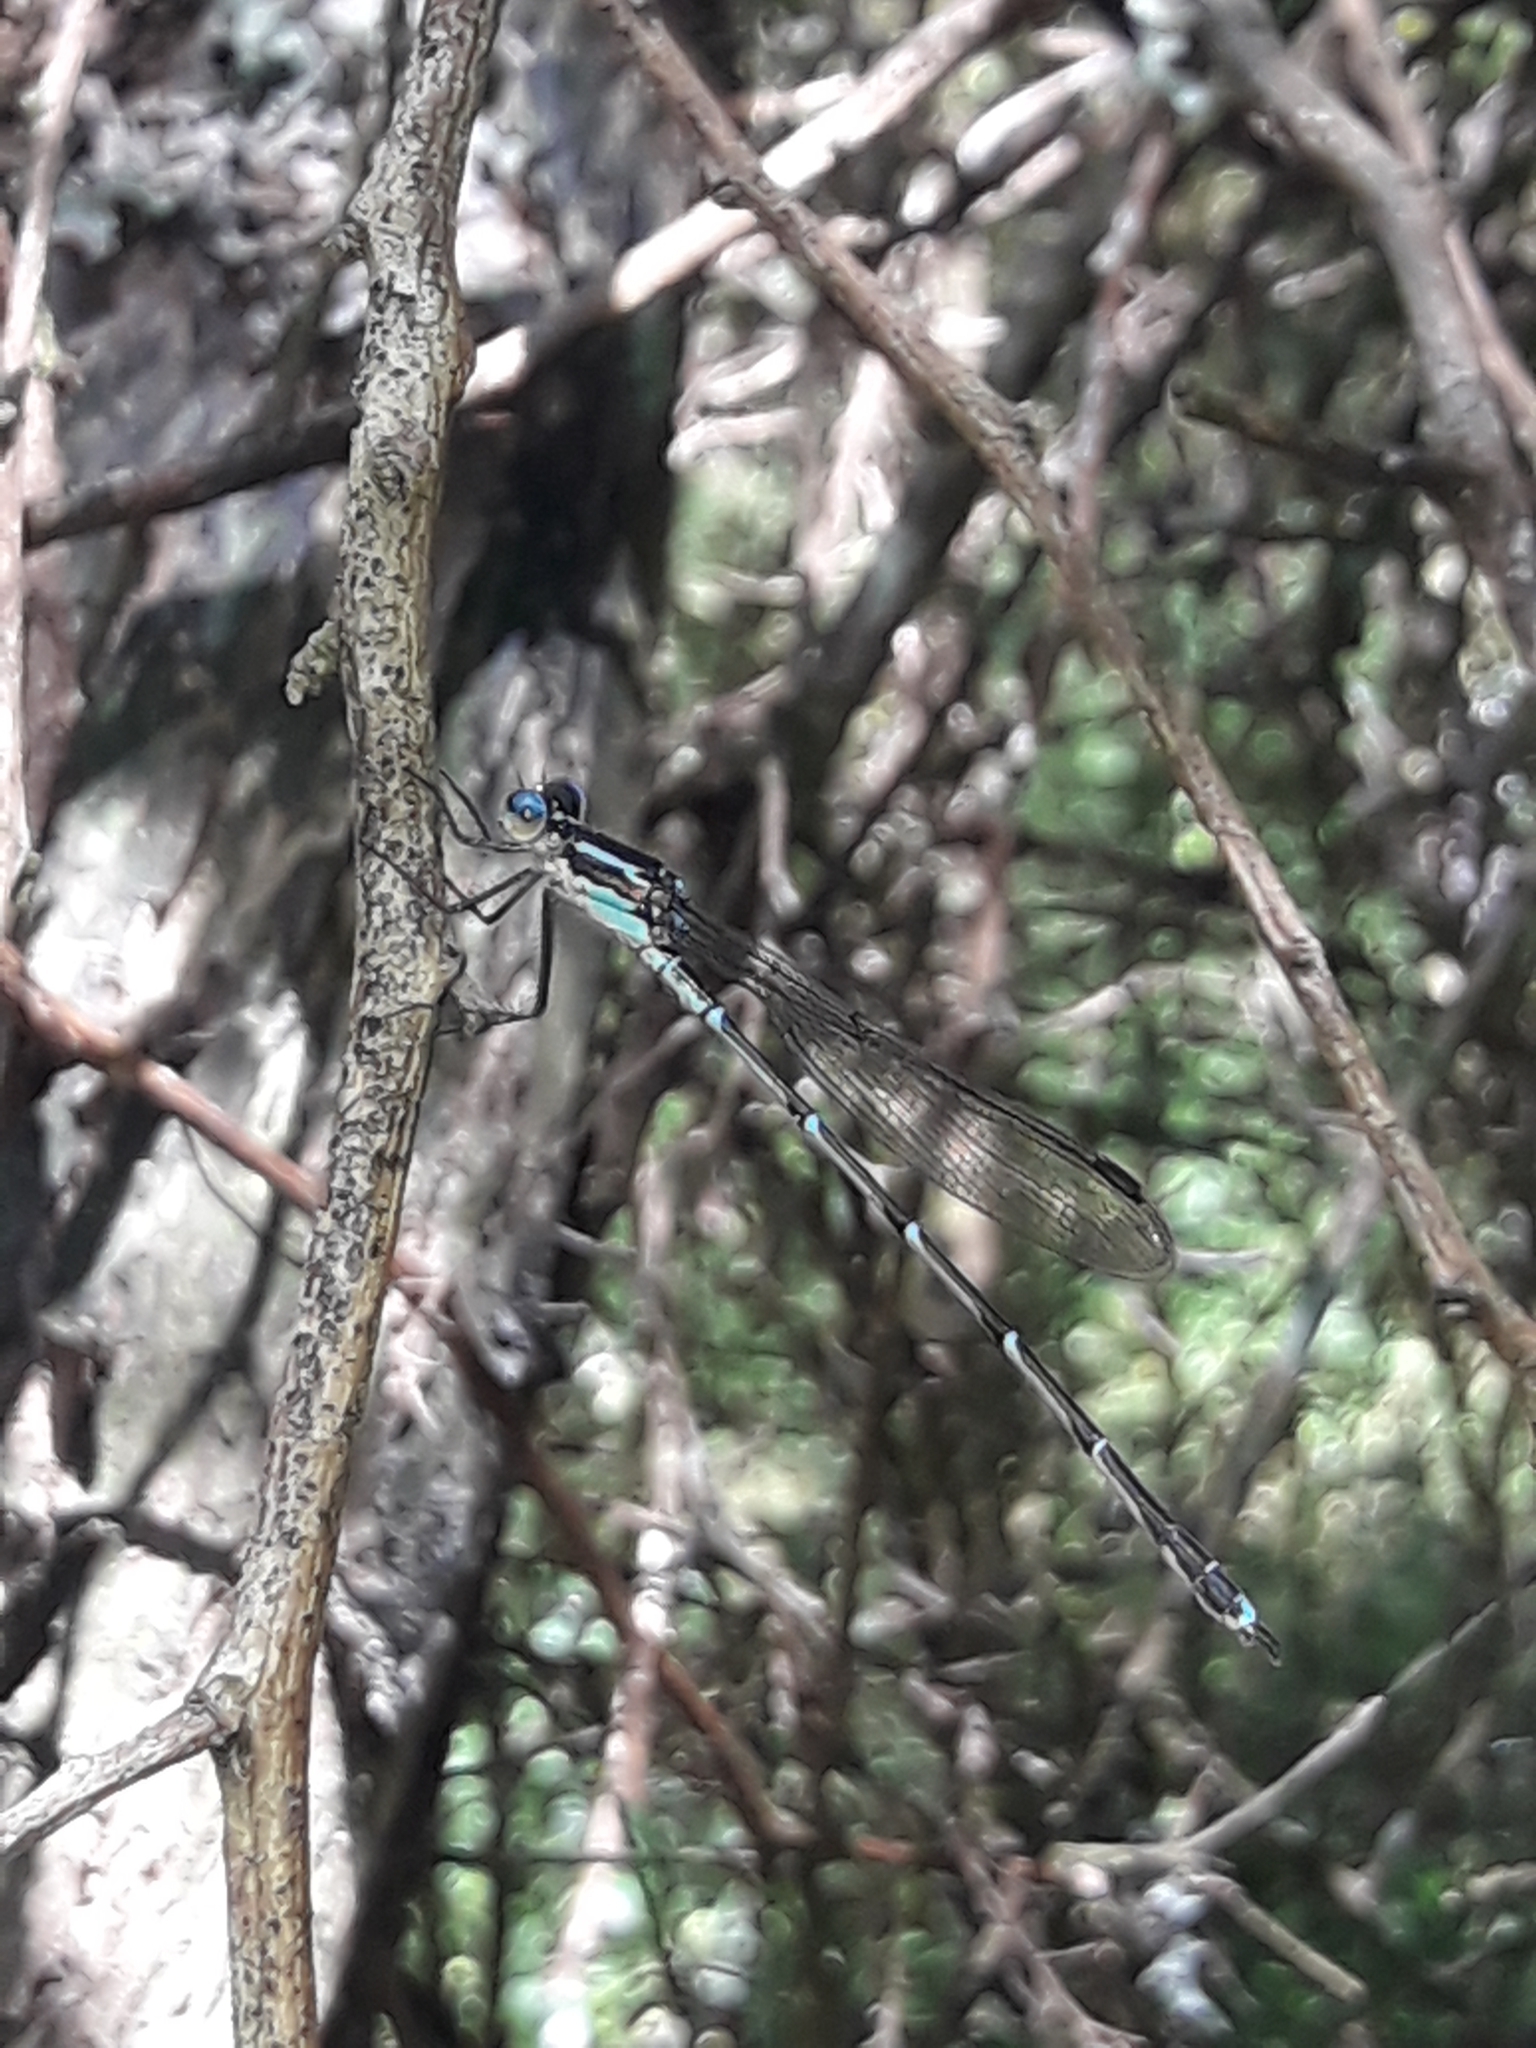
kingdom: Animalia
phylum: Arthropoda
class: Insecta
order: Odonata
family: Lestidae
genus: Austrolestes
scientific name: Austrolestes colensonis
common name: Blue damselfly
